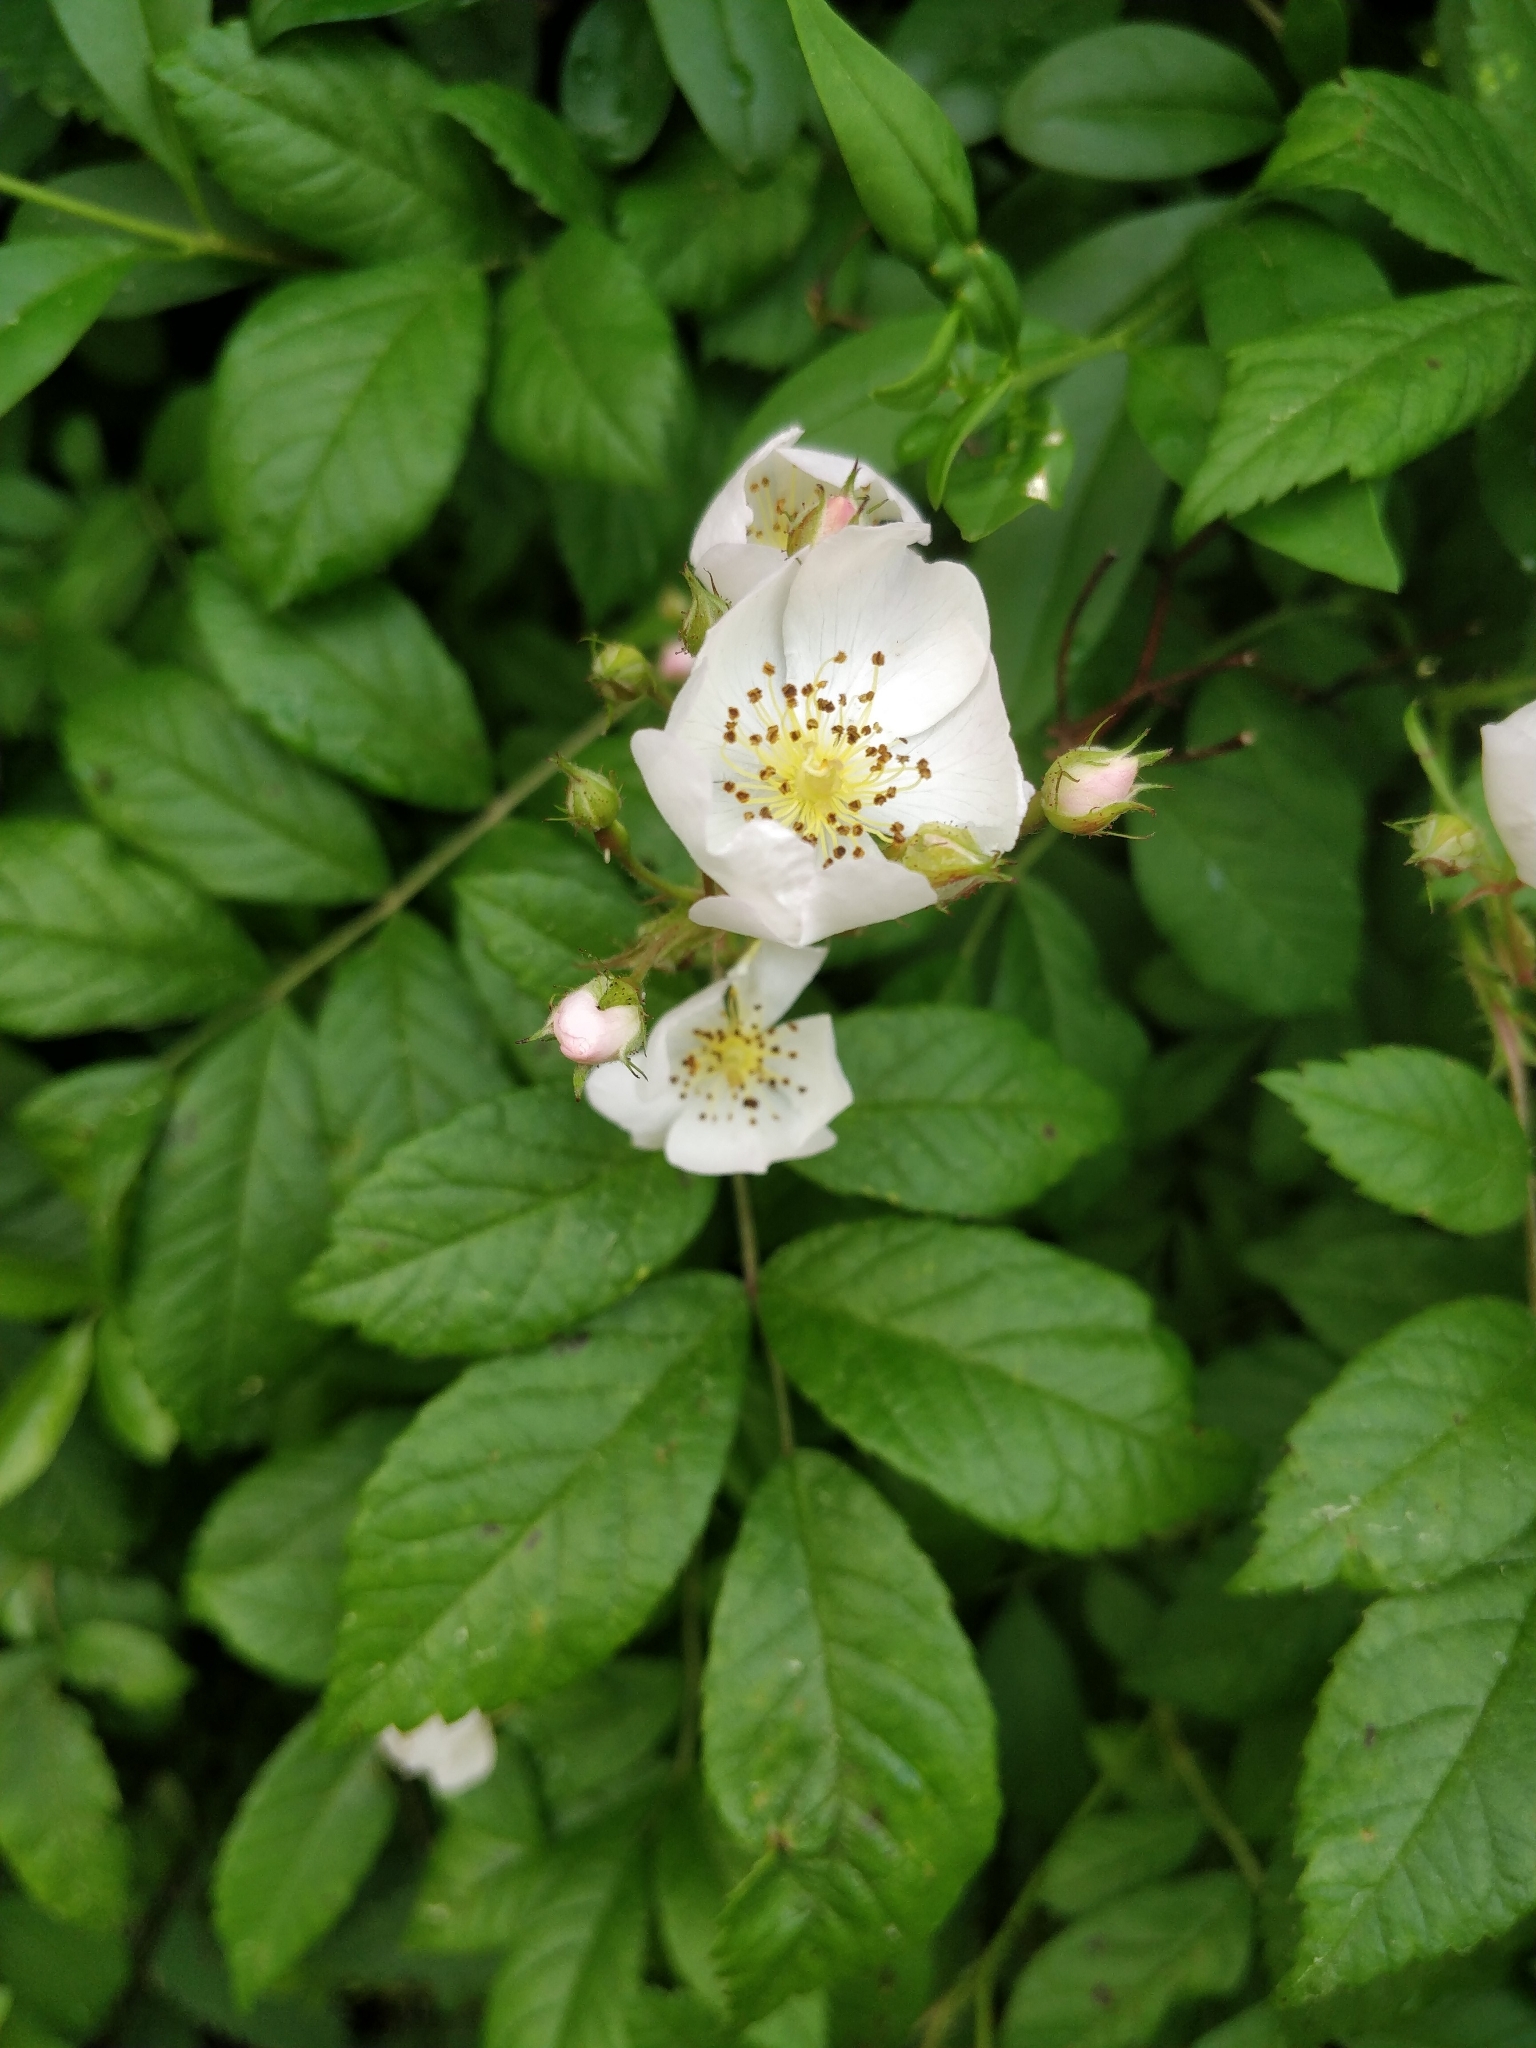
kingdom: Plantae
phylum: Tracheophyta
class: Magnoliopsida
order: Rosales
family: Rosaceae
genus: Rosa
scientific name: Rosa multiflora
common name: Multiflora rose
